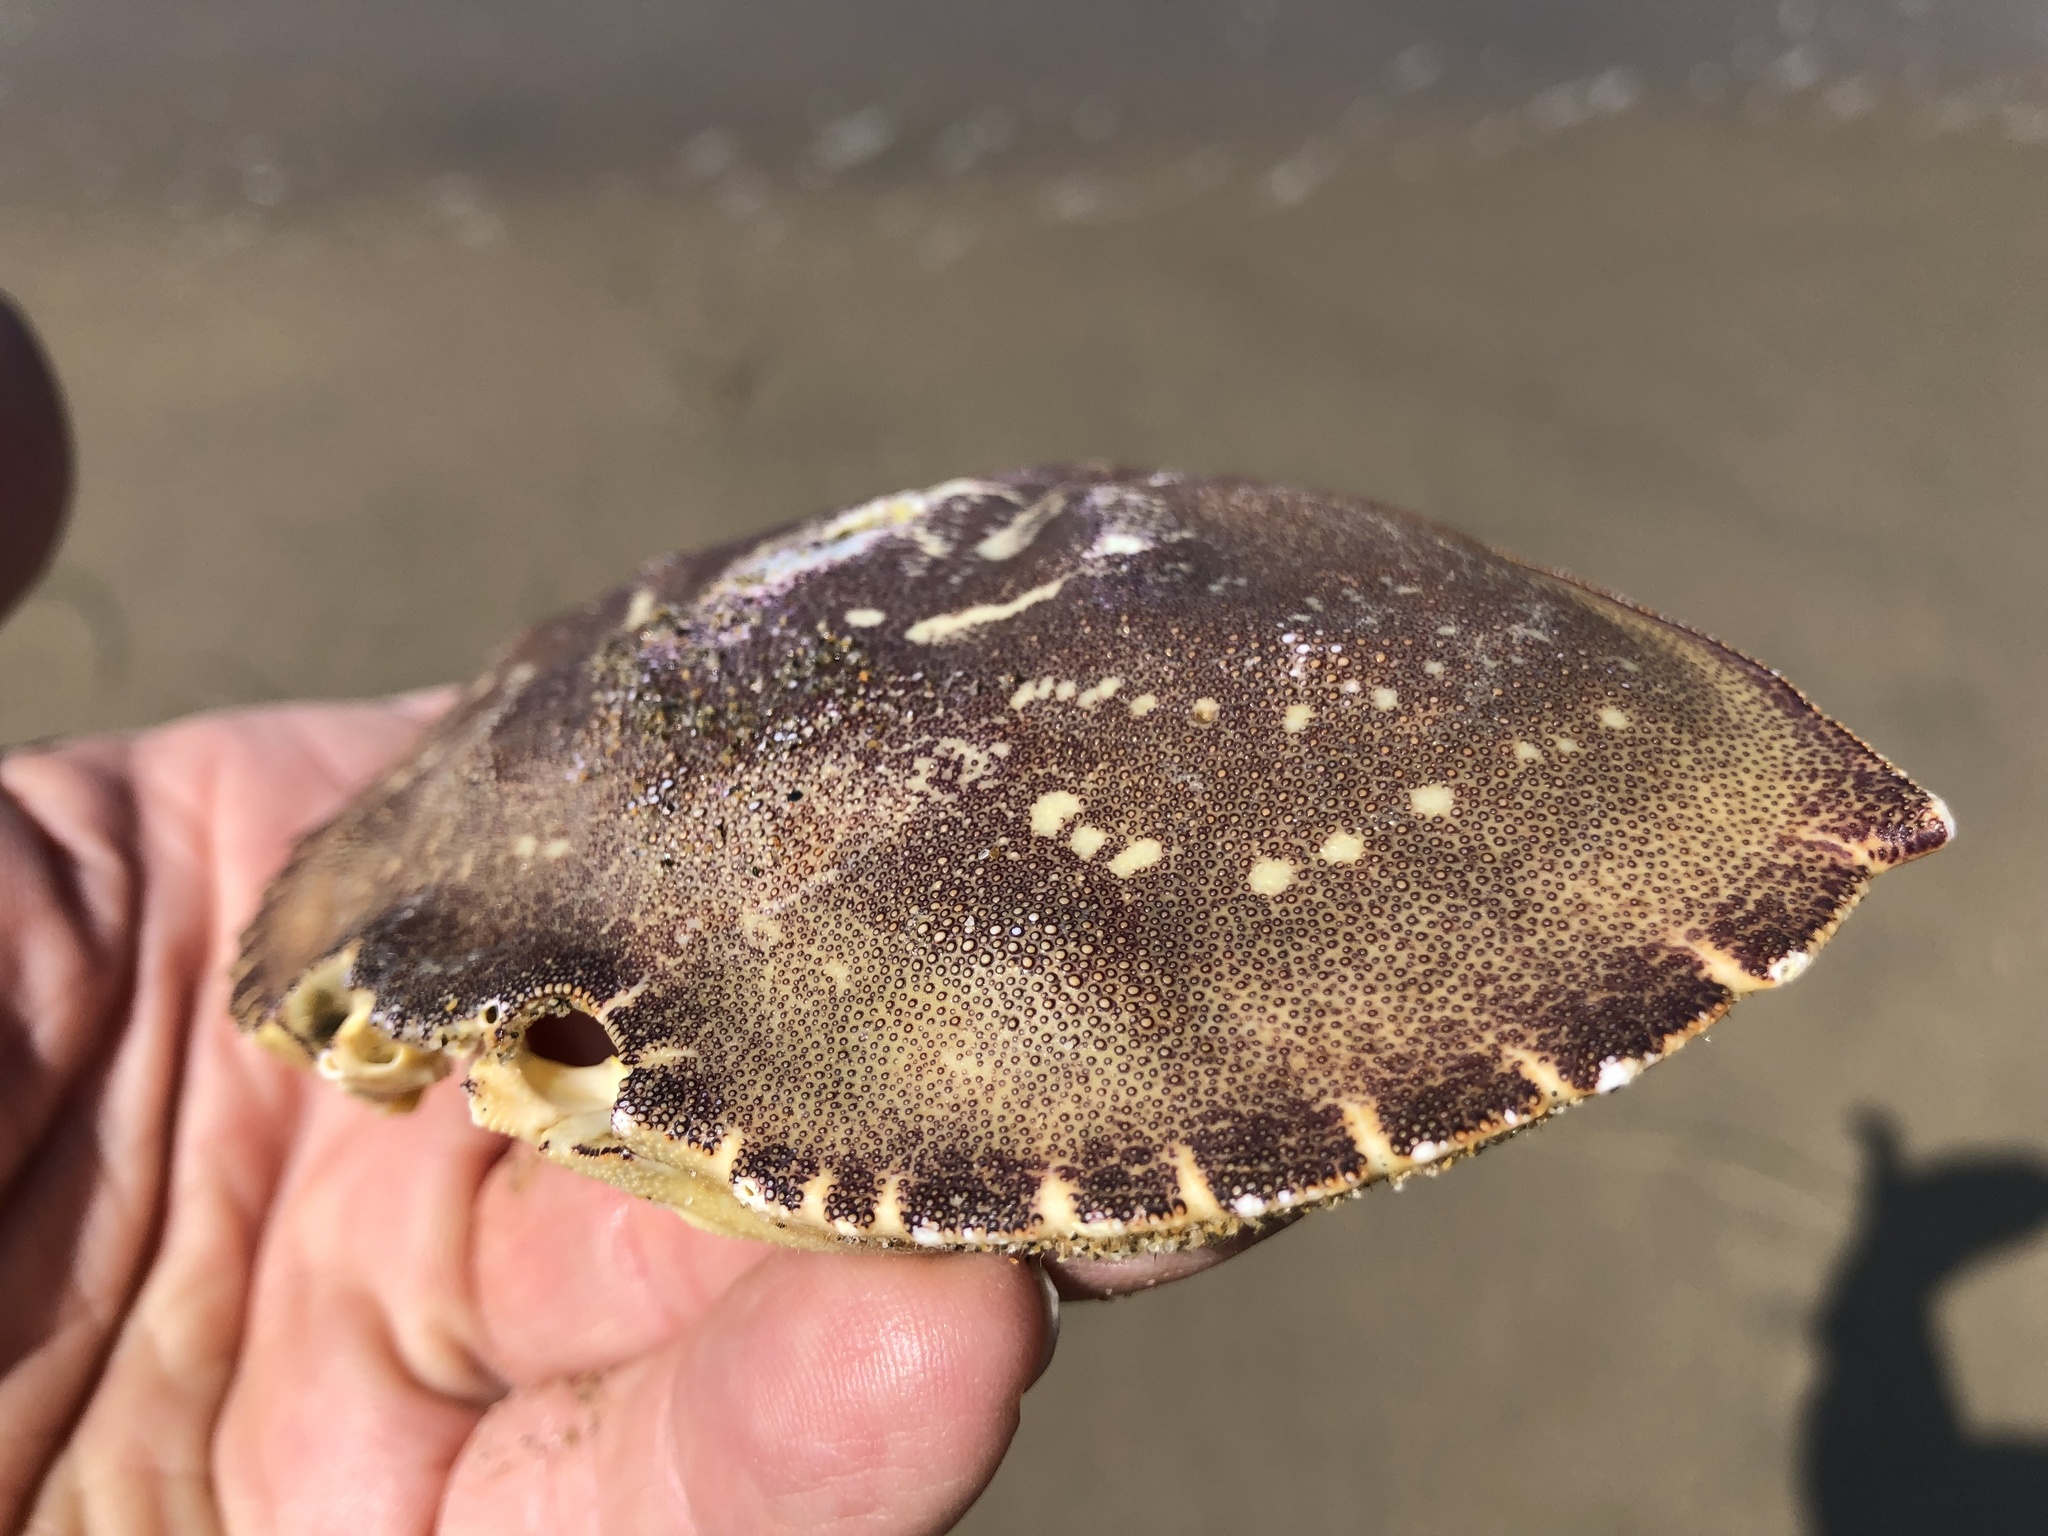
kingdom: Animalia
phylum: Arthropoda
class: Malacostraca
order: Decapoda
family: Cancridae
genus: Metacarcinus
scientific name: Metacarcinus magister
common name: Californian crab
